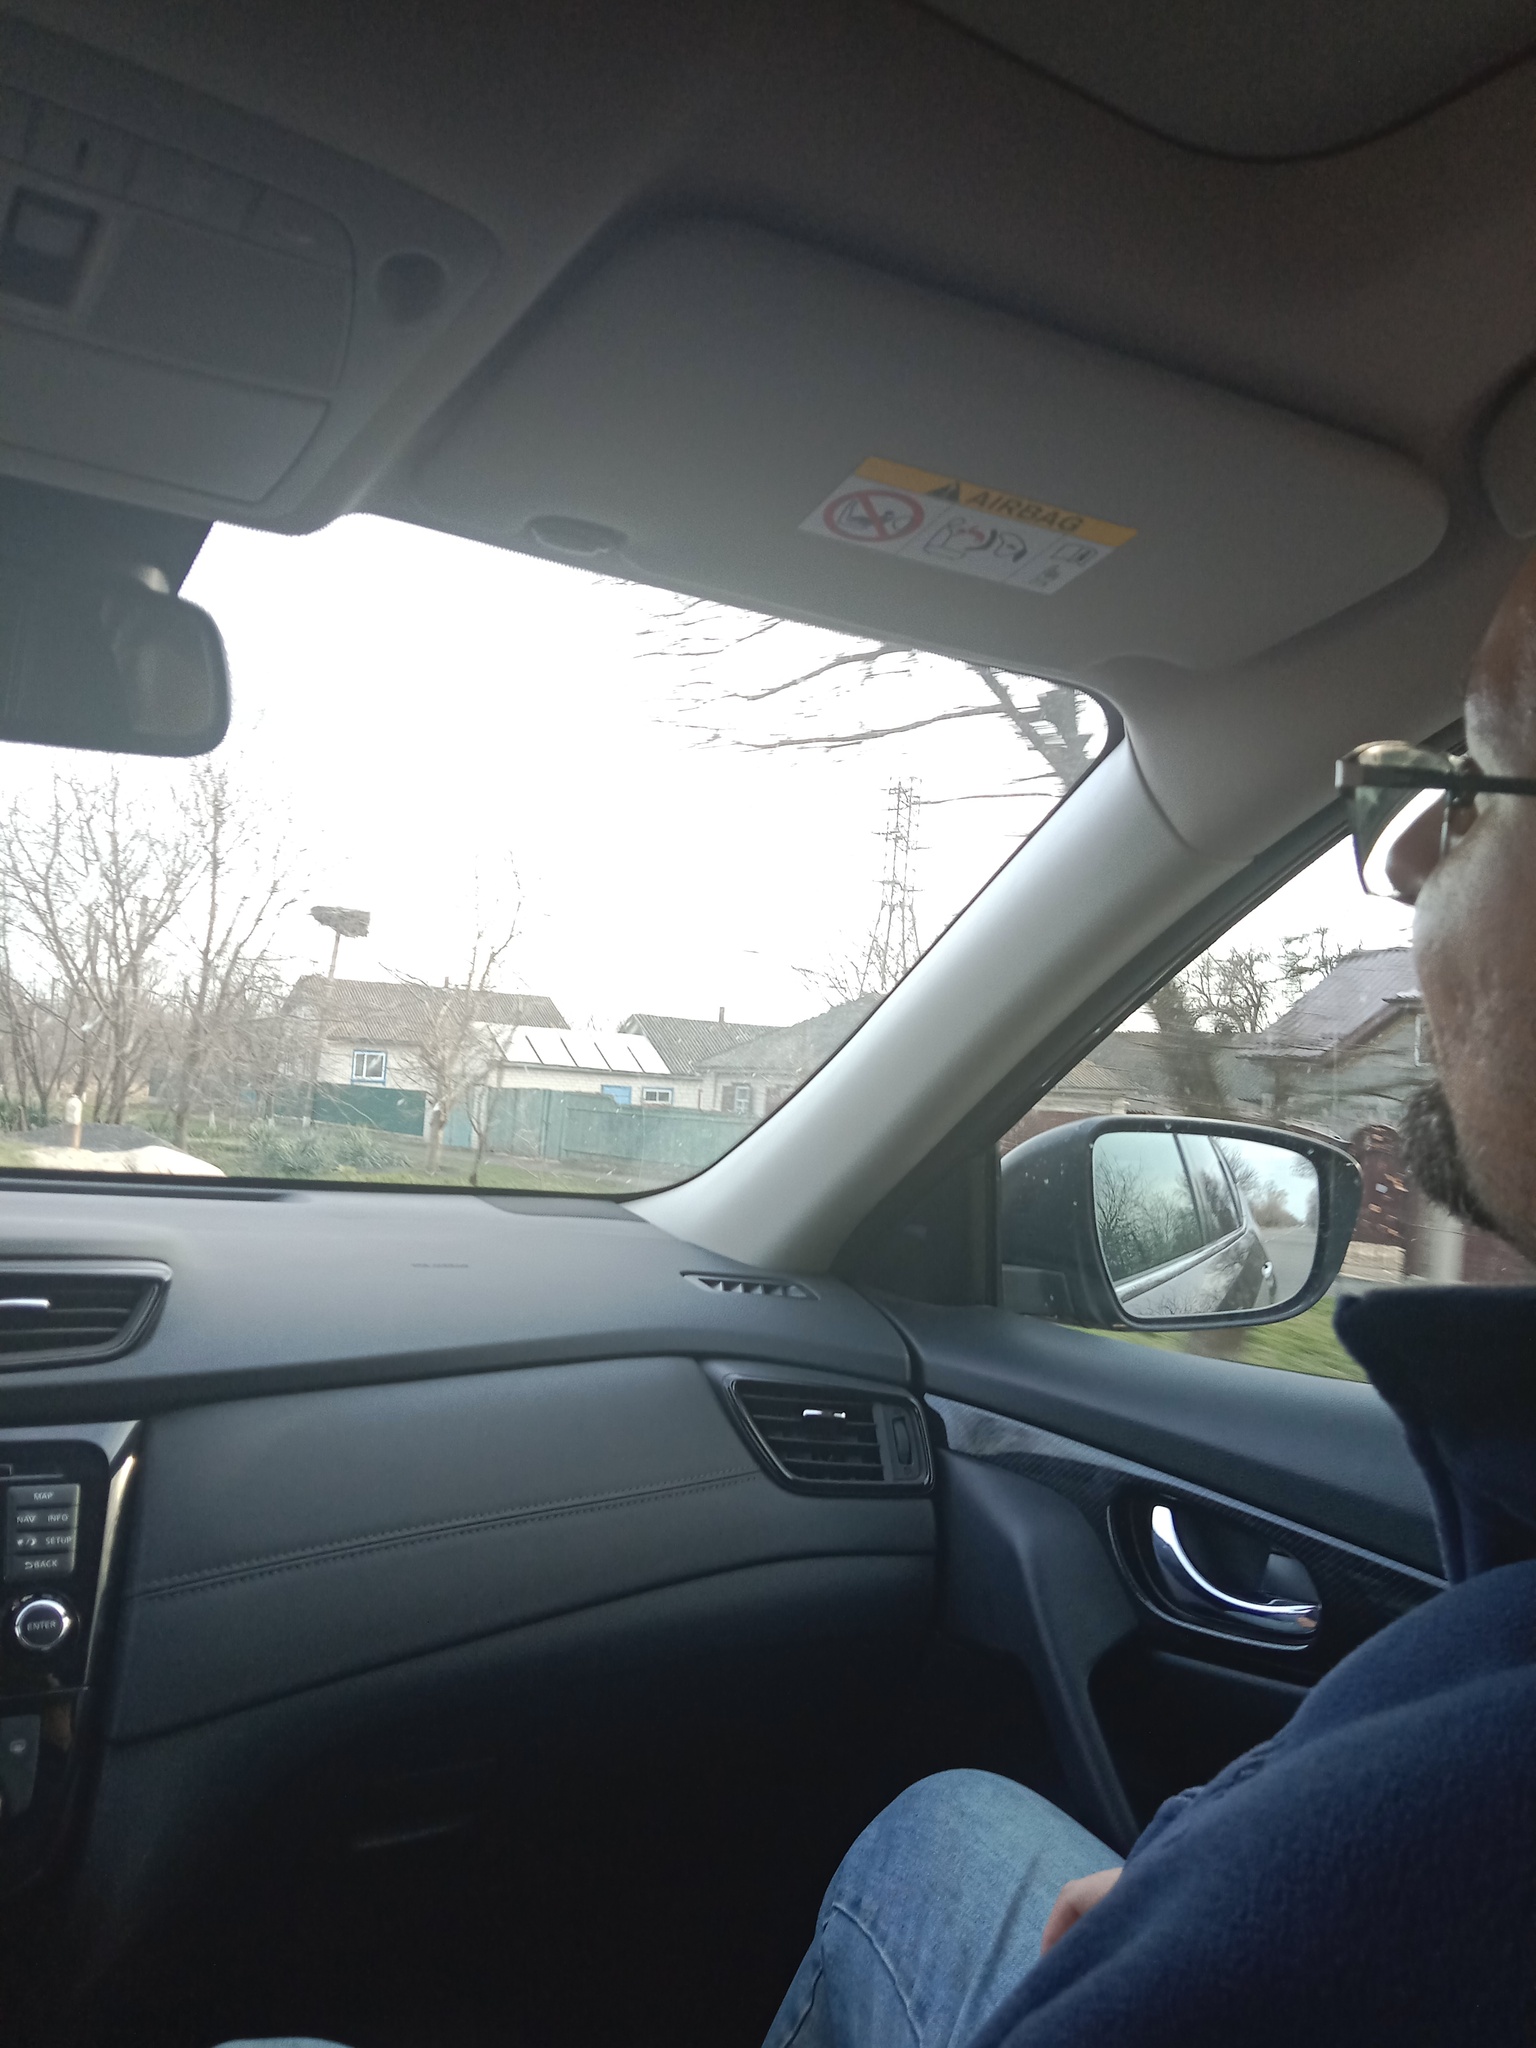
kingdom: Animalia
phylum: Chordata
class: Aves
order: Ciconiiformes
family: Ciconiidae
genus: Ciconia
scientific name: Ciconia ciconia
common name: White stork
